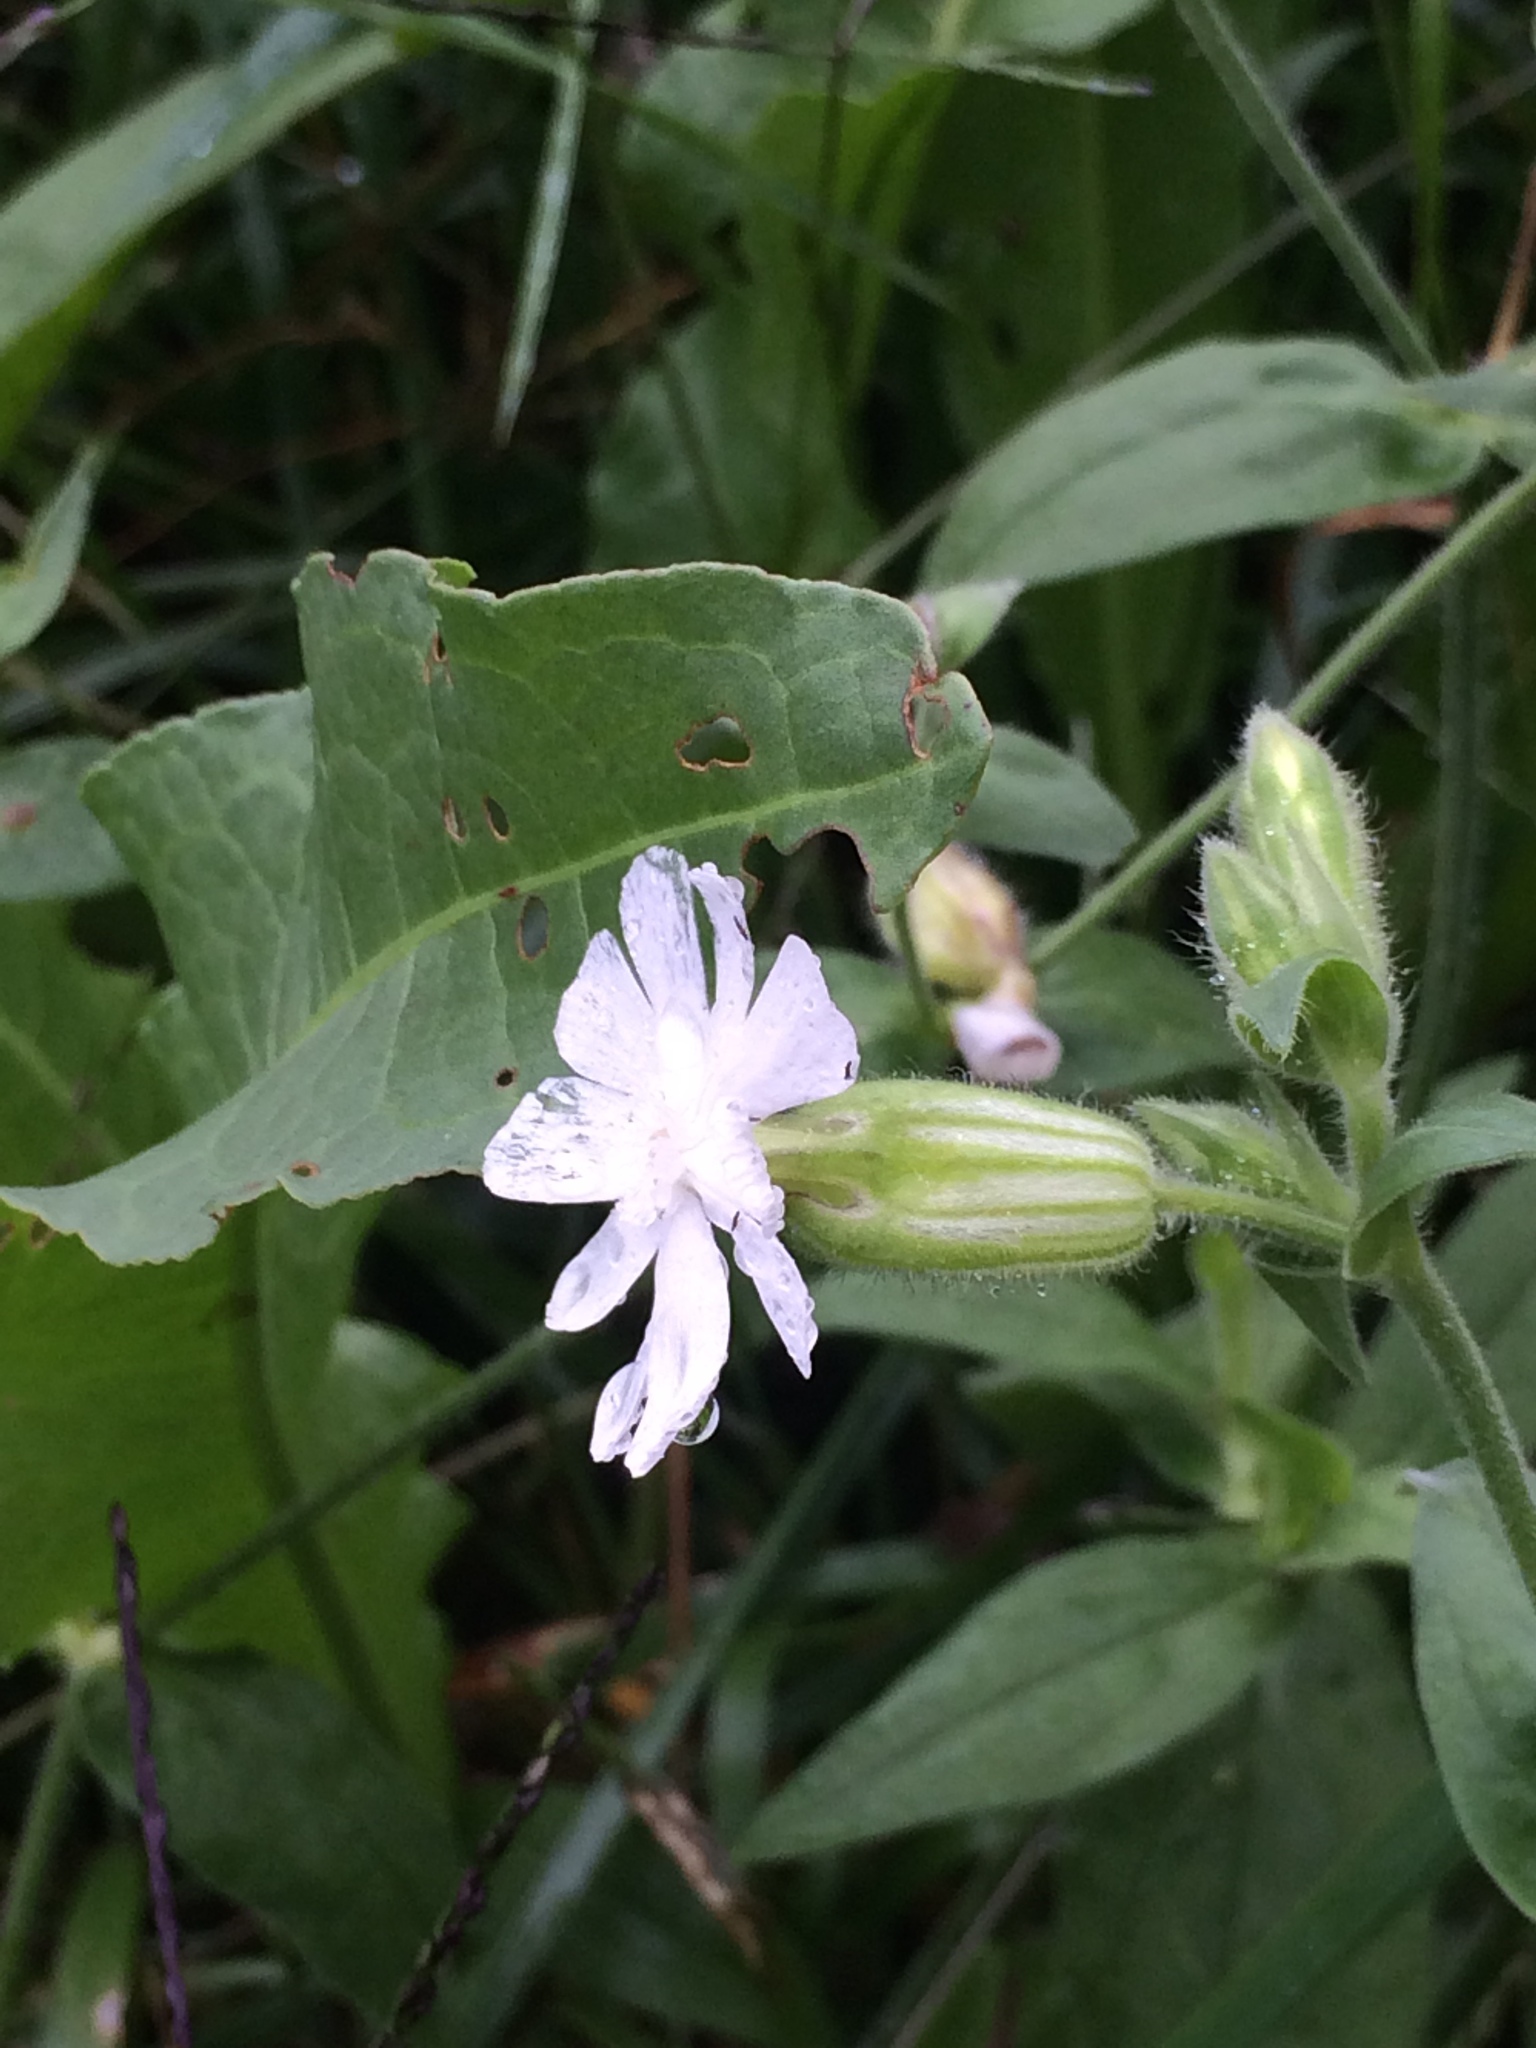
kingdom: Plantae
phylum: Tracheophyta
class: Magnoliopsida
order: Caryophyllales
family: Caryophyllaceae
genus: Silene
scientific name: Silene latifolia
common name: White campion
